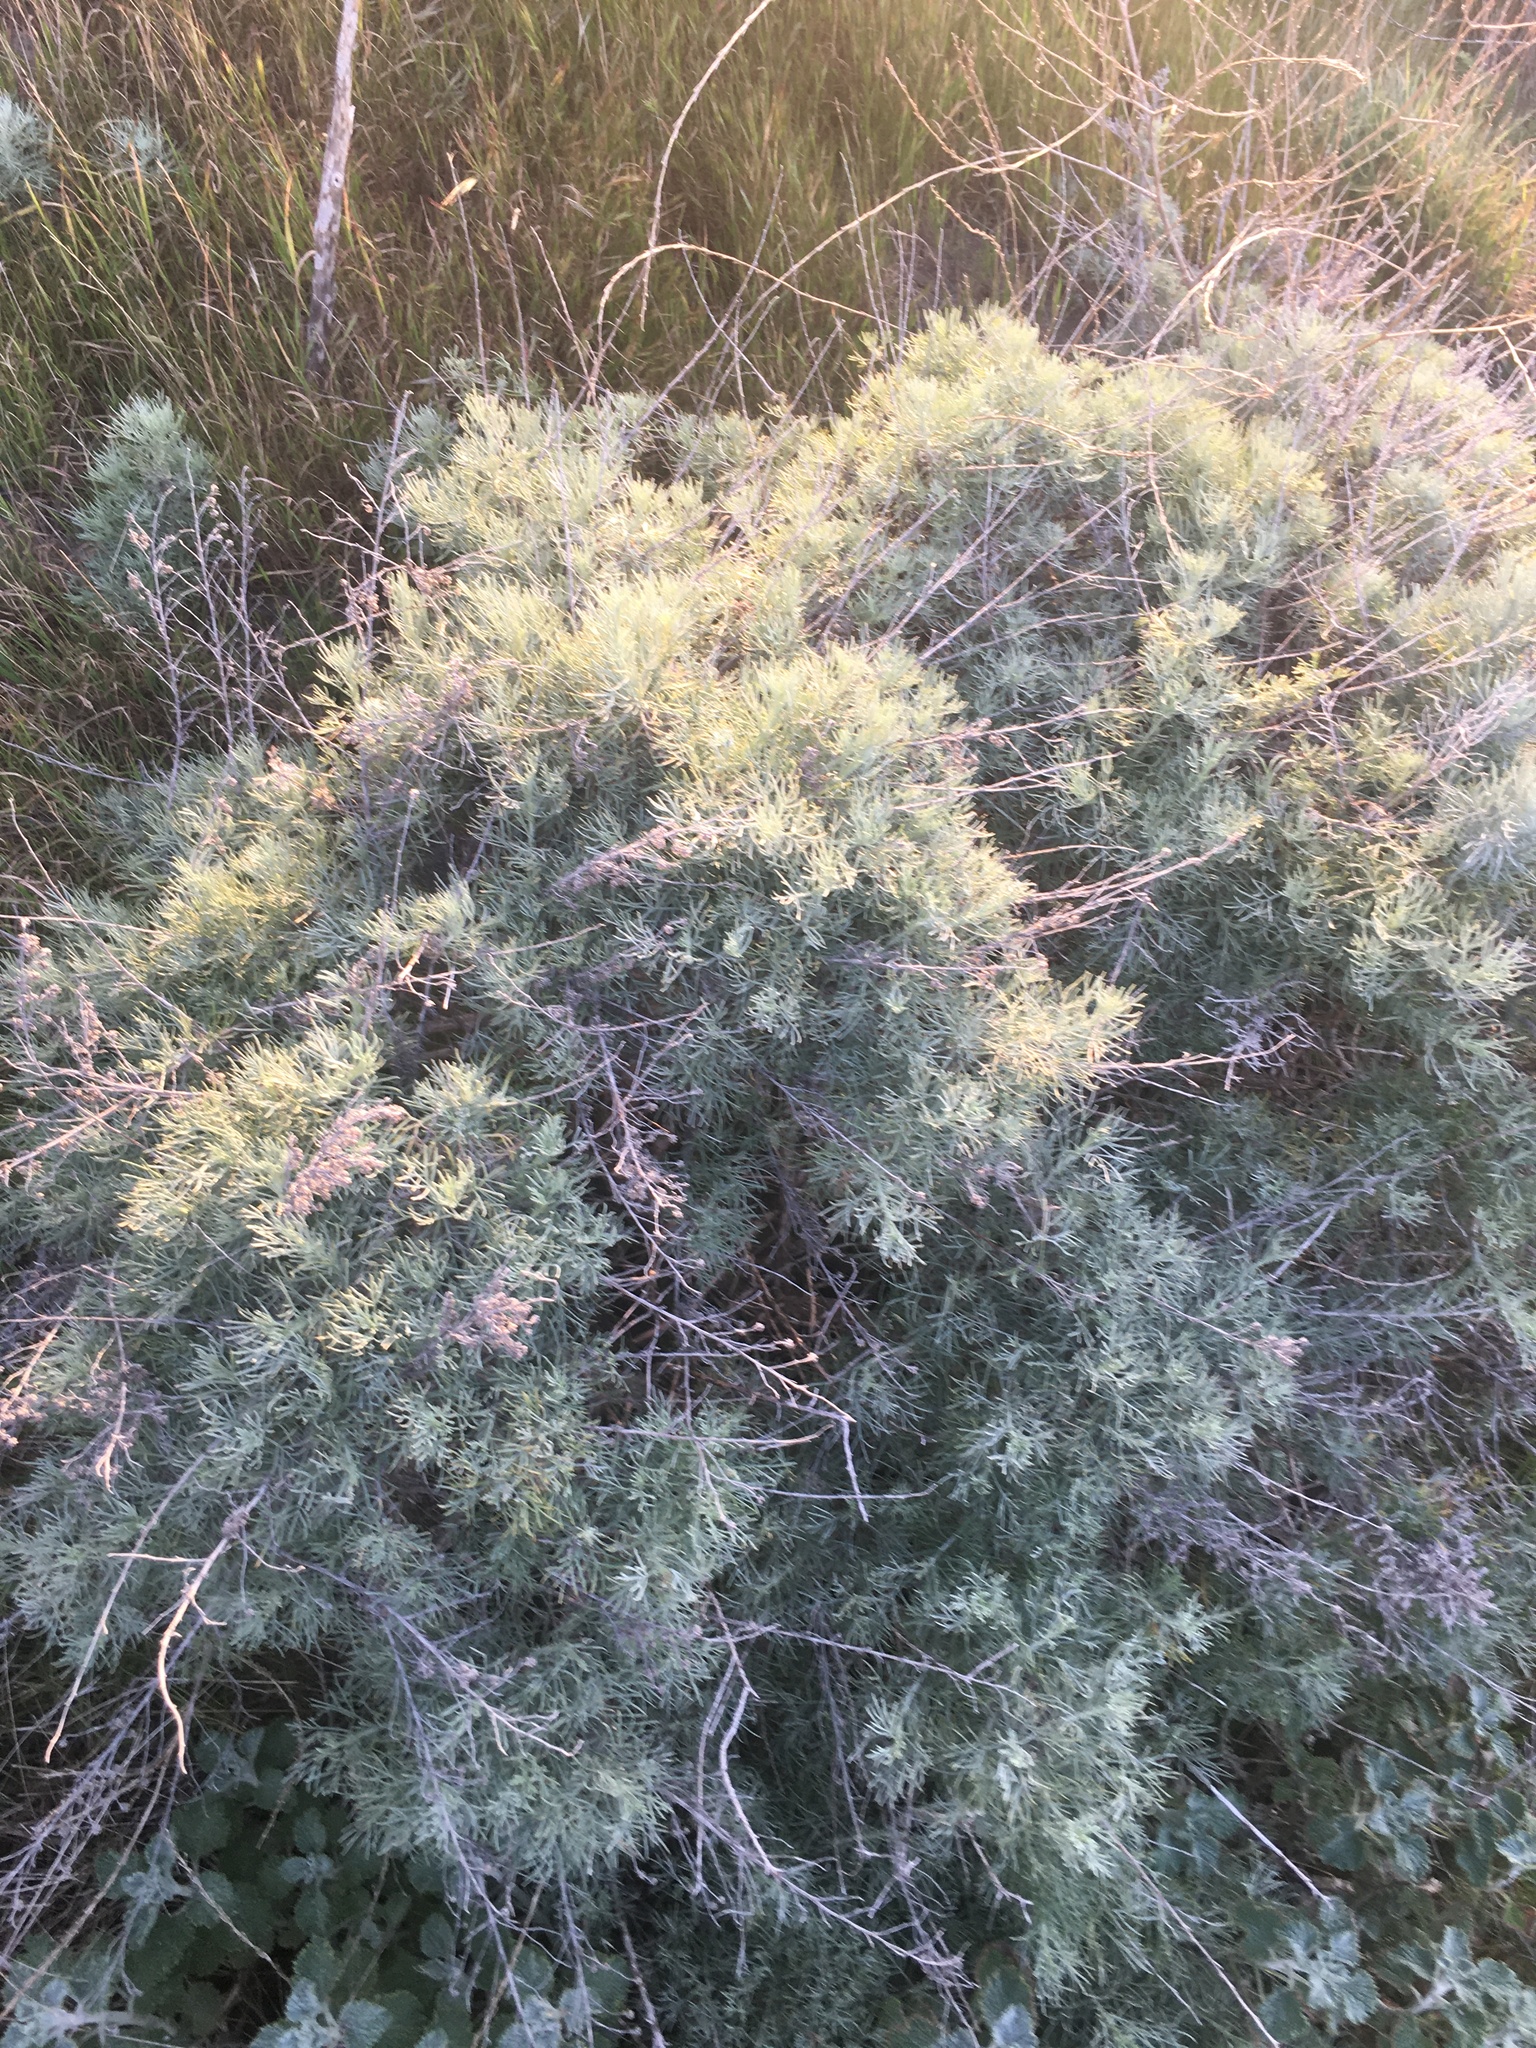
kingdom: Plantae
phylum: Tracheophyta
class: Magnoliopsida
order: Asterales
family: Asteraceae
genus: Artemisia
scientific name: Artemisia californica
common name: California sagebrush
